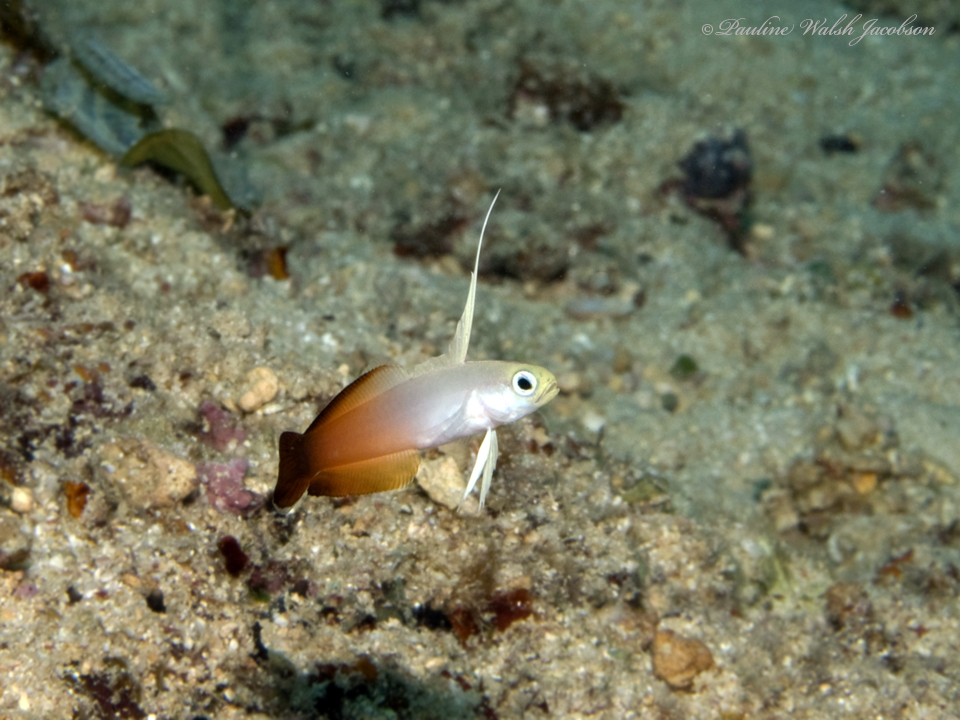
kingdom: Animalia
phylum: Chordata
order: Perciformes
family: Microdesmidae
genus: Nemateleotris
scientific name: Nemateleotris magnifica
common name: Fire goby
